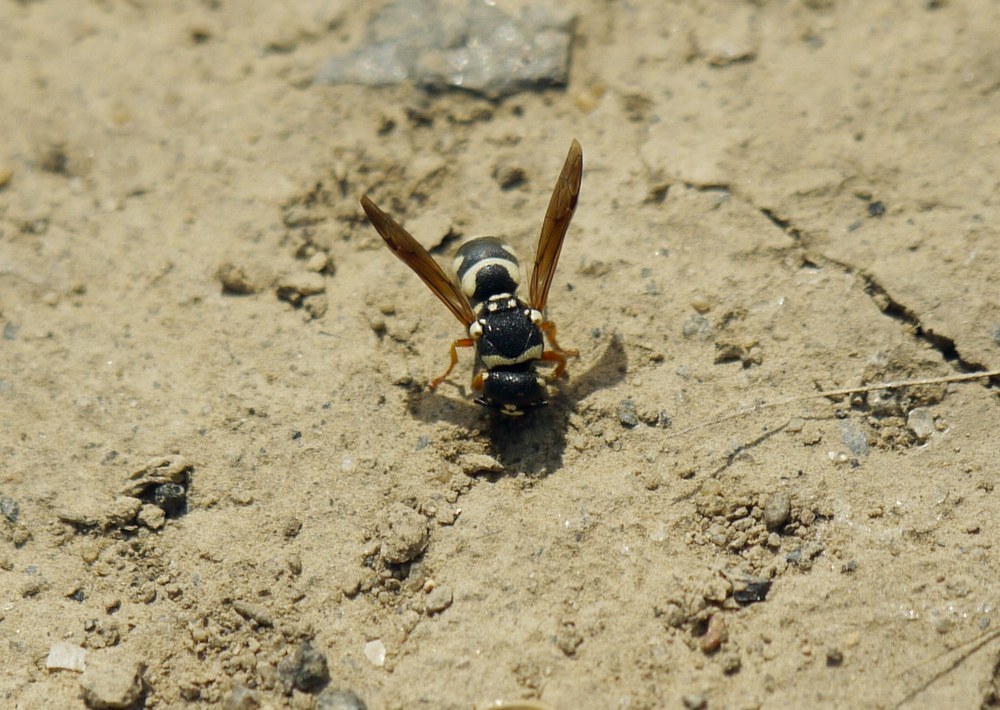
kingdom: Animalia
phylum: Arthropoda
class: Insecta
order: Hymenoptera
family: Eumenidae
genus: Parodontodynerus
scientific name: Parodontodynerus ephippium
